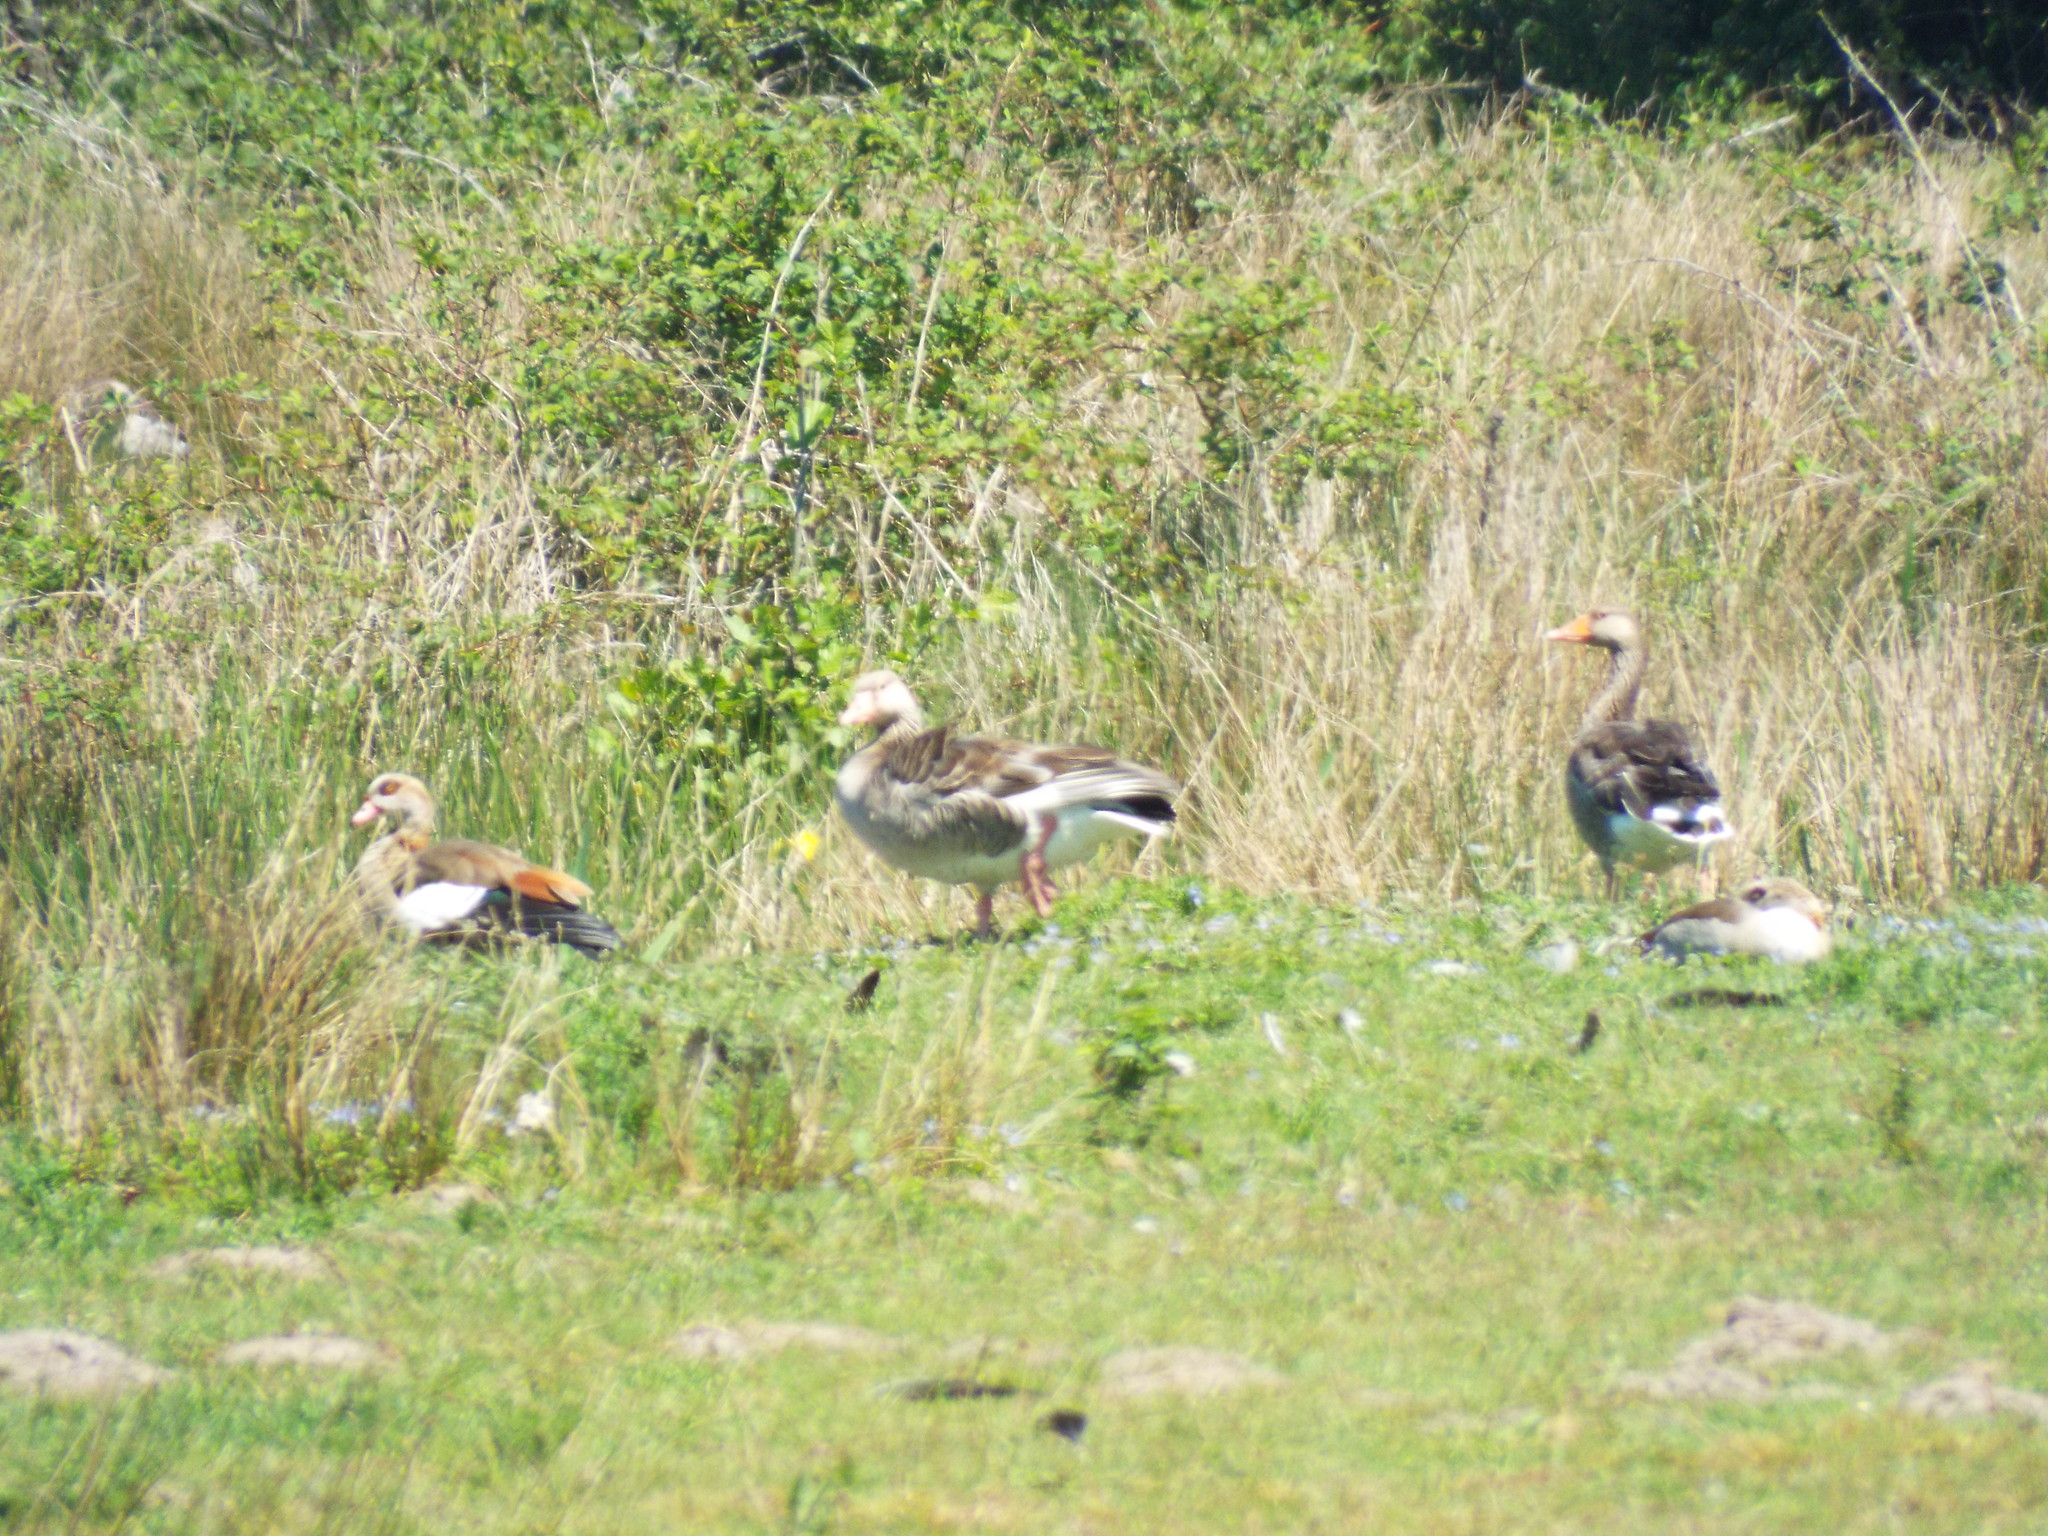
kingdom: Animalia
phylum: Chordata
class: Aves
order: Anseriformes
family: Anatidae
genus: Anser
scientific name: Anser anser
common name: Greylag goose
